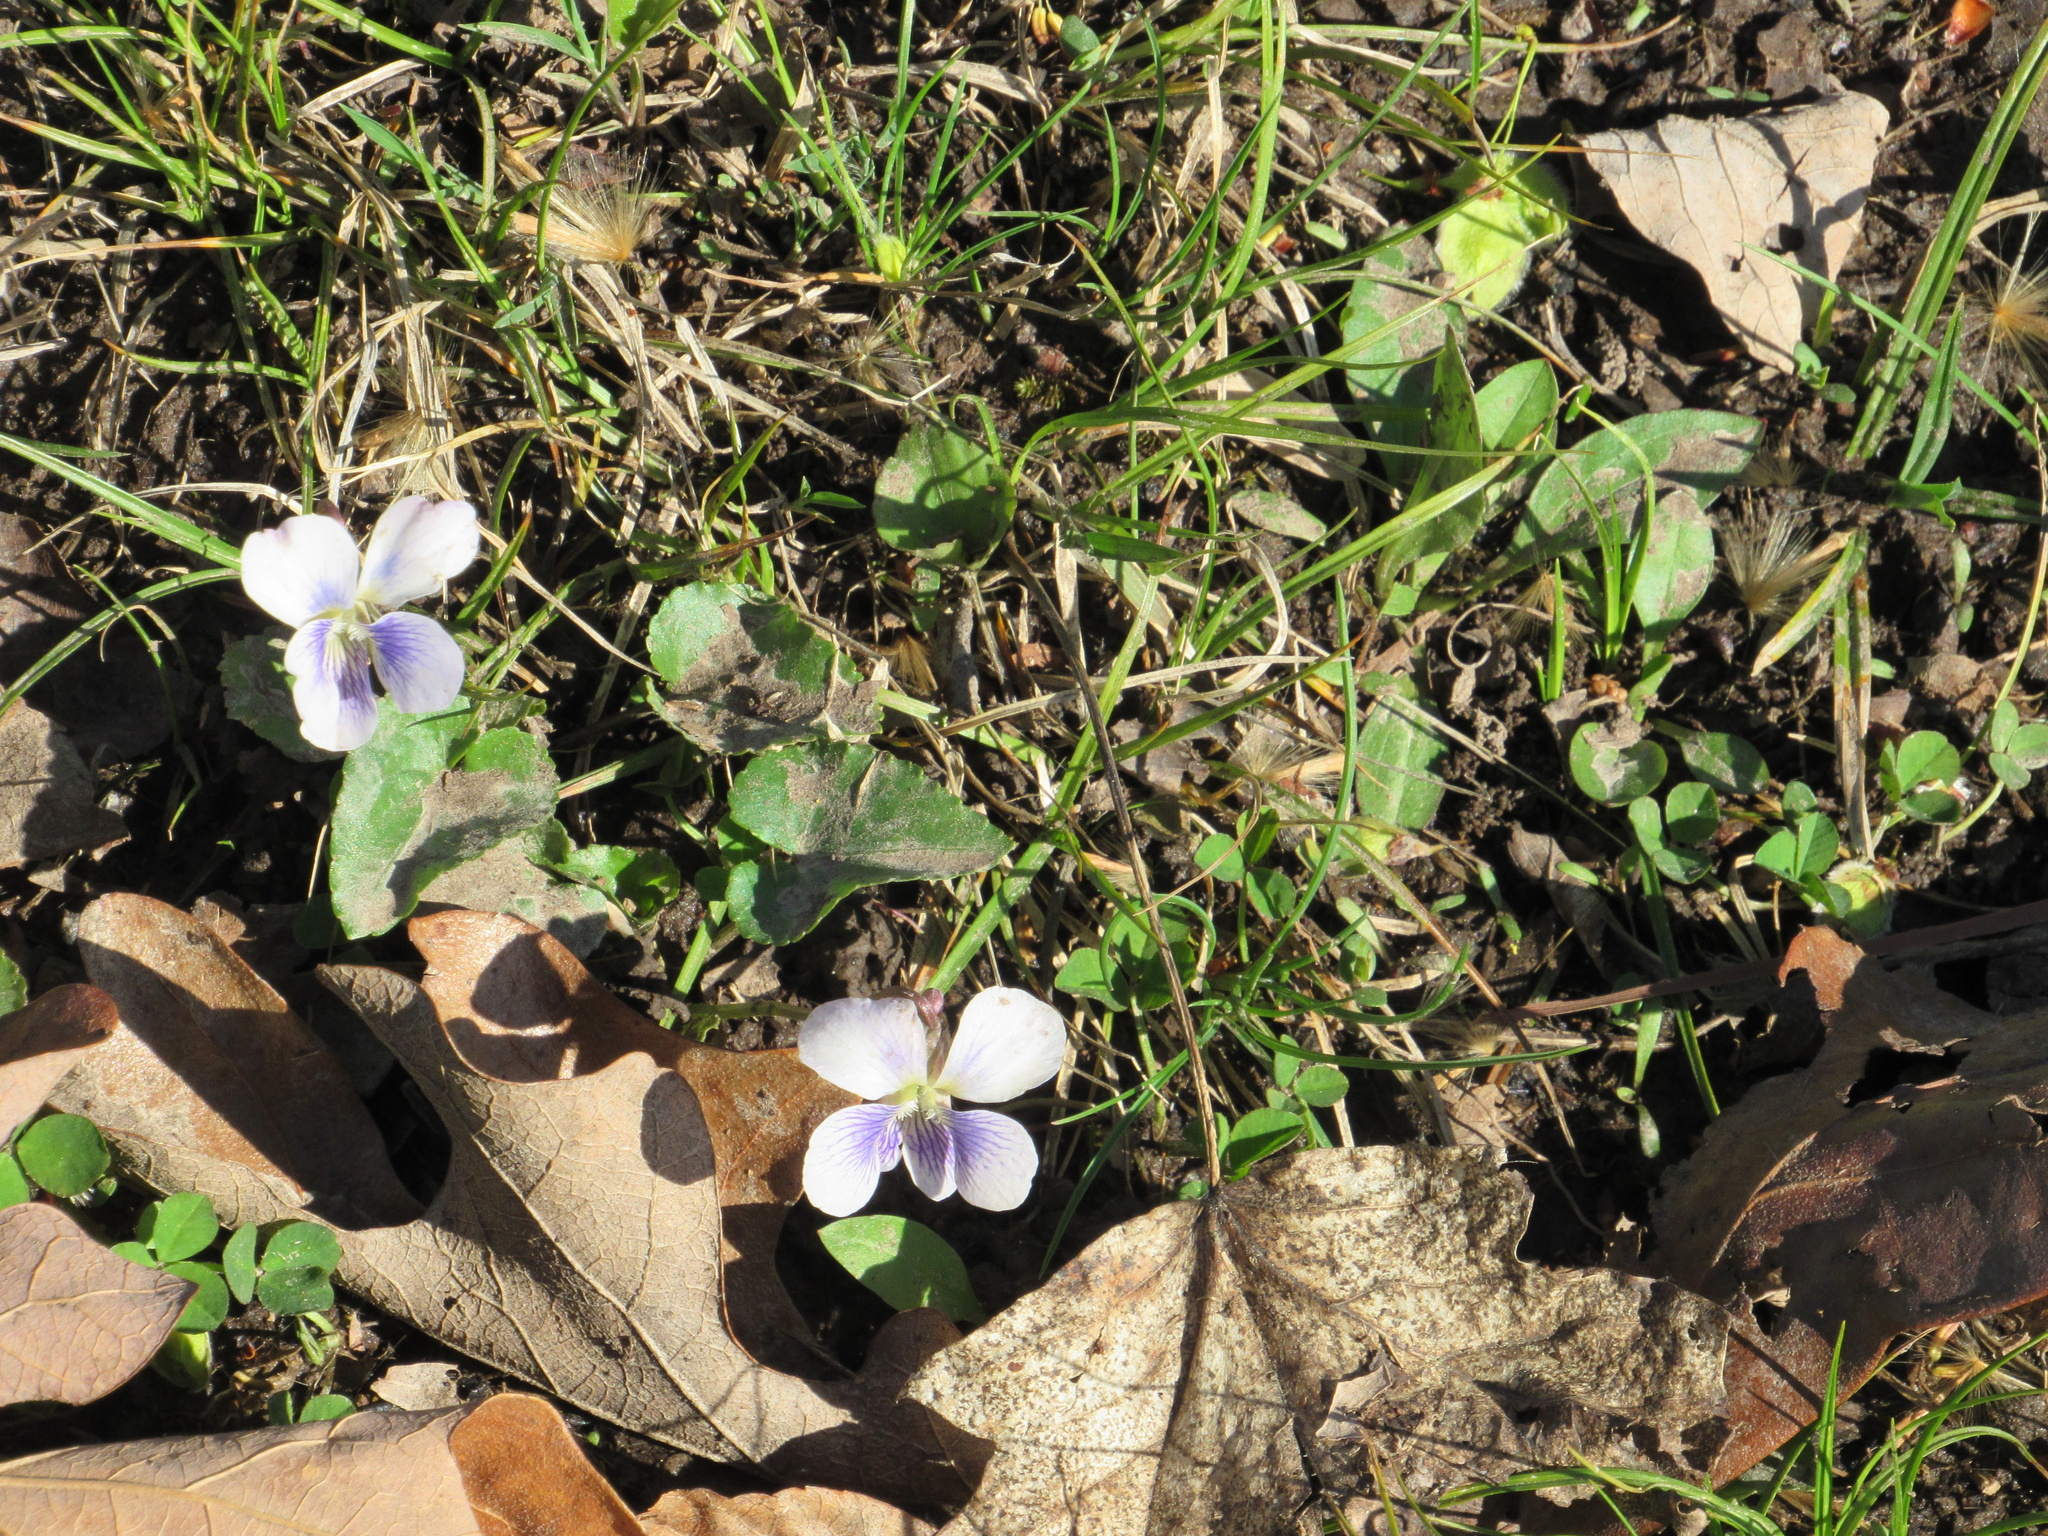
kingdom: Plantae
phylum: Tracheophyta
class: Magnoliopsida
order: Malpighiales
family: Violaceae
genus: Viola
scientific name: Viola sororia
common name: Dooryard violet
